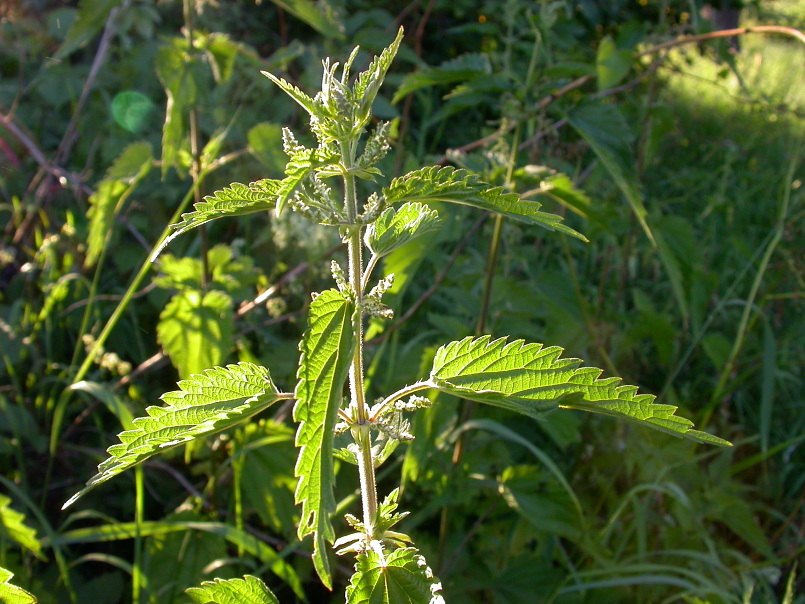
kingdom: Plantae
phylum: Tracheophyta
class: Magnoliopsida
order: Rosales
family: Urticaceae
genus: Urtica
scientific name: Urtica dioica
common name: Common nettle
